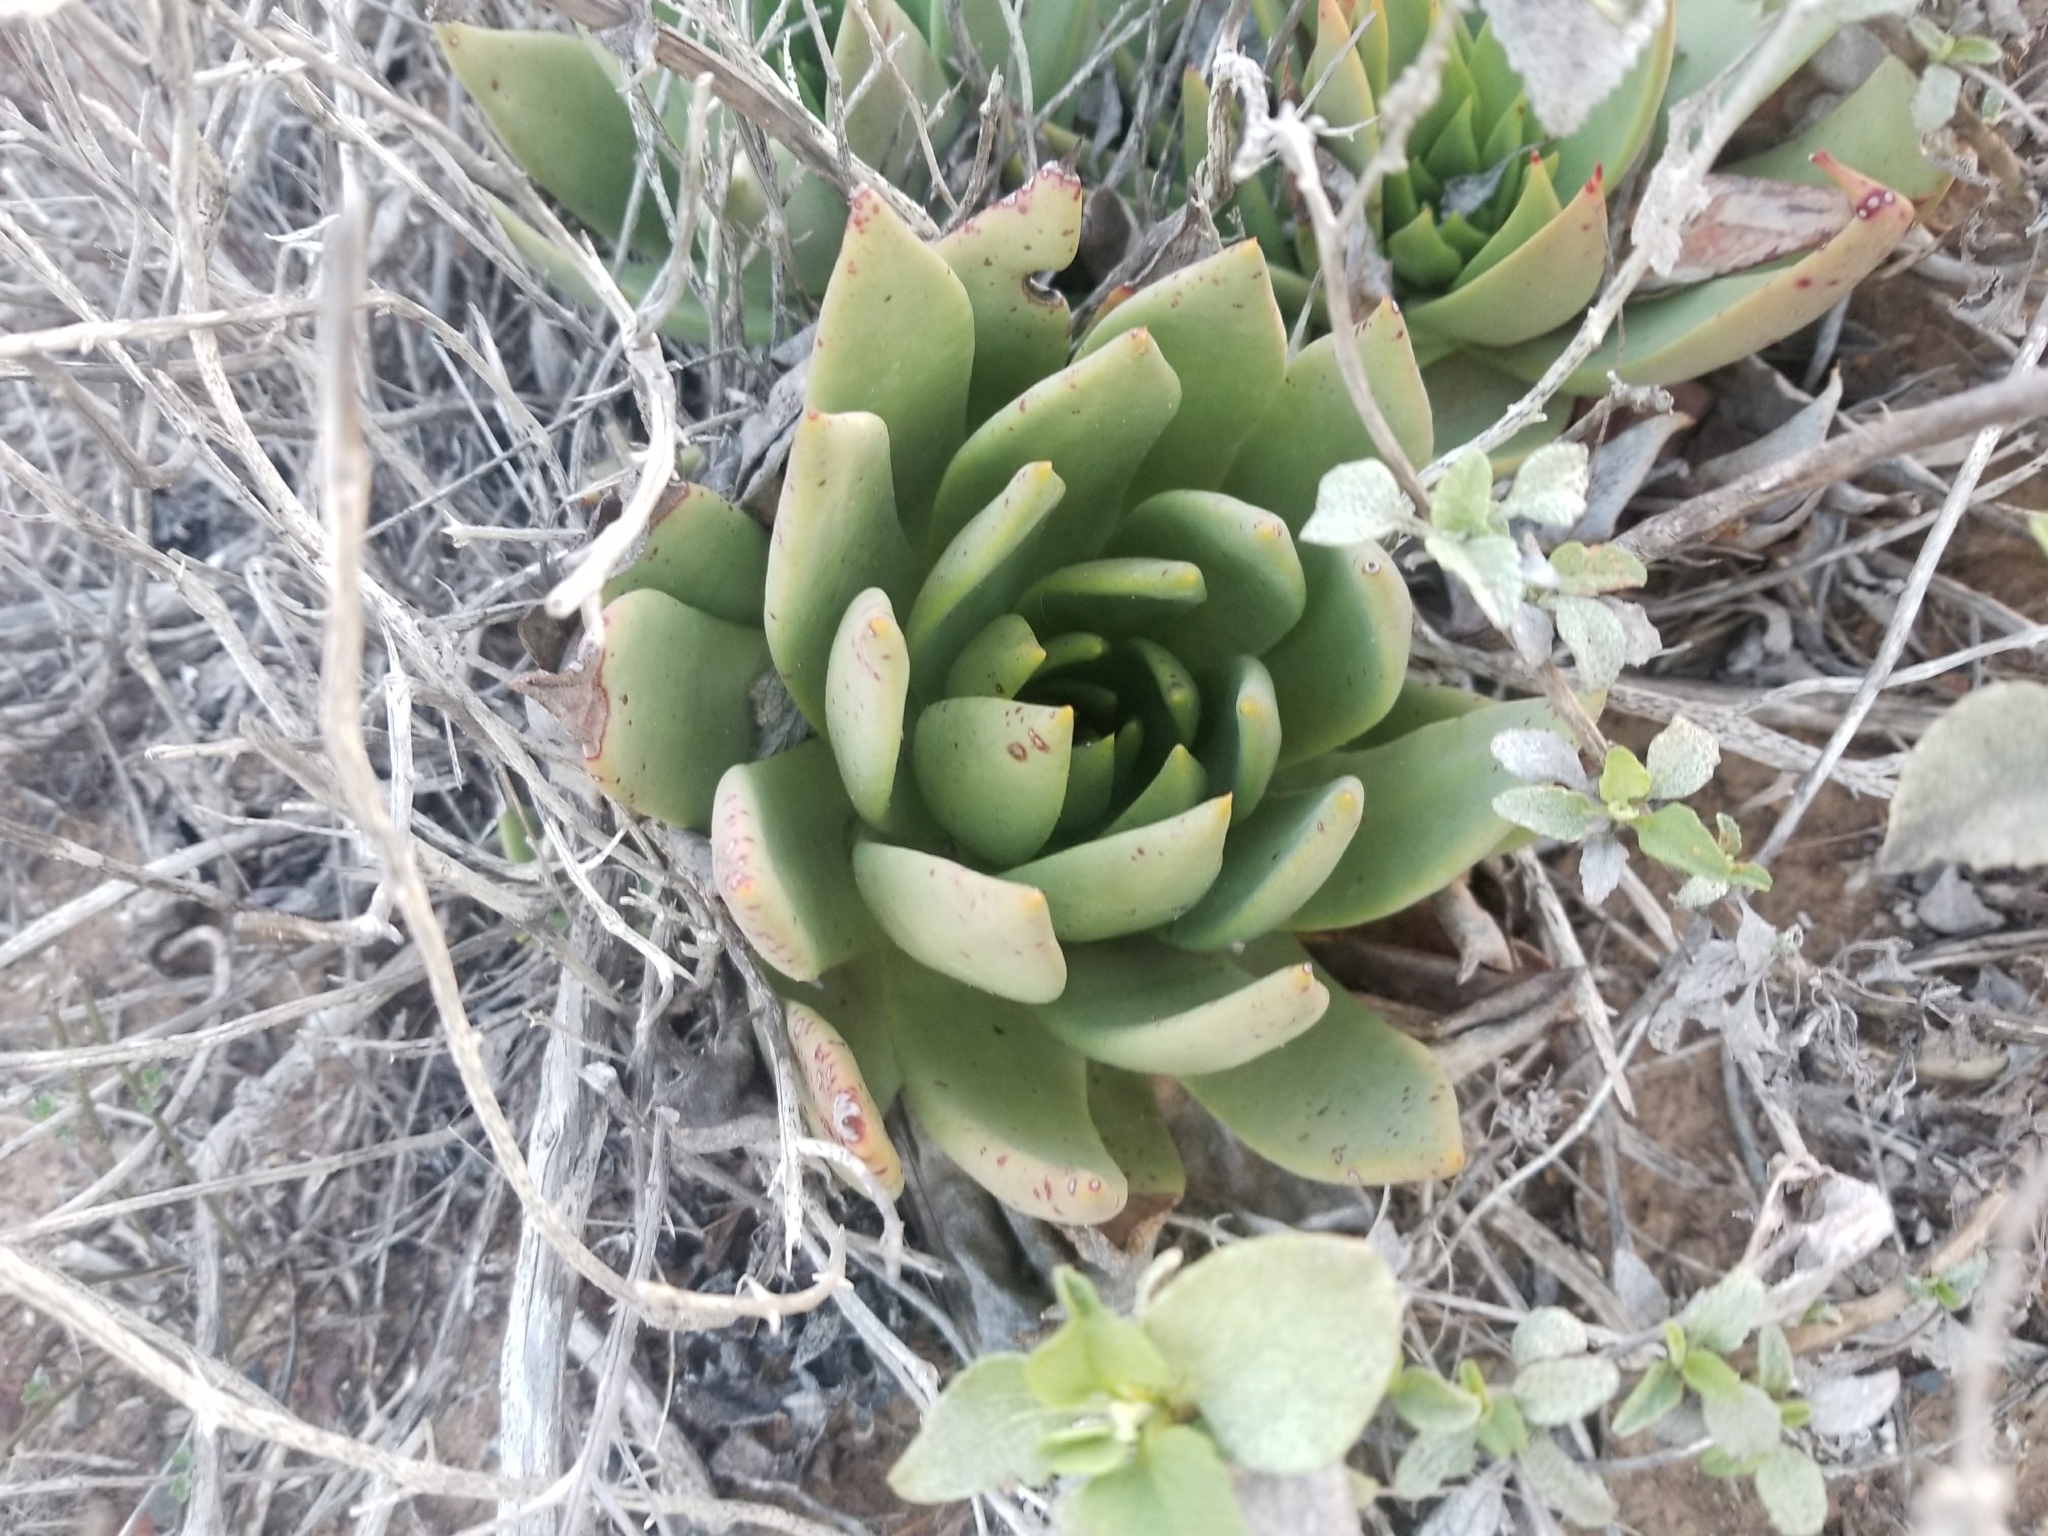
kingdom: Plantae
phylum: Tracheophyta
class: Magnoliopsida
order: Saxifragales
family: Crassulaceae
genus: Dudleya
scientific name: Dudleya ingens
